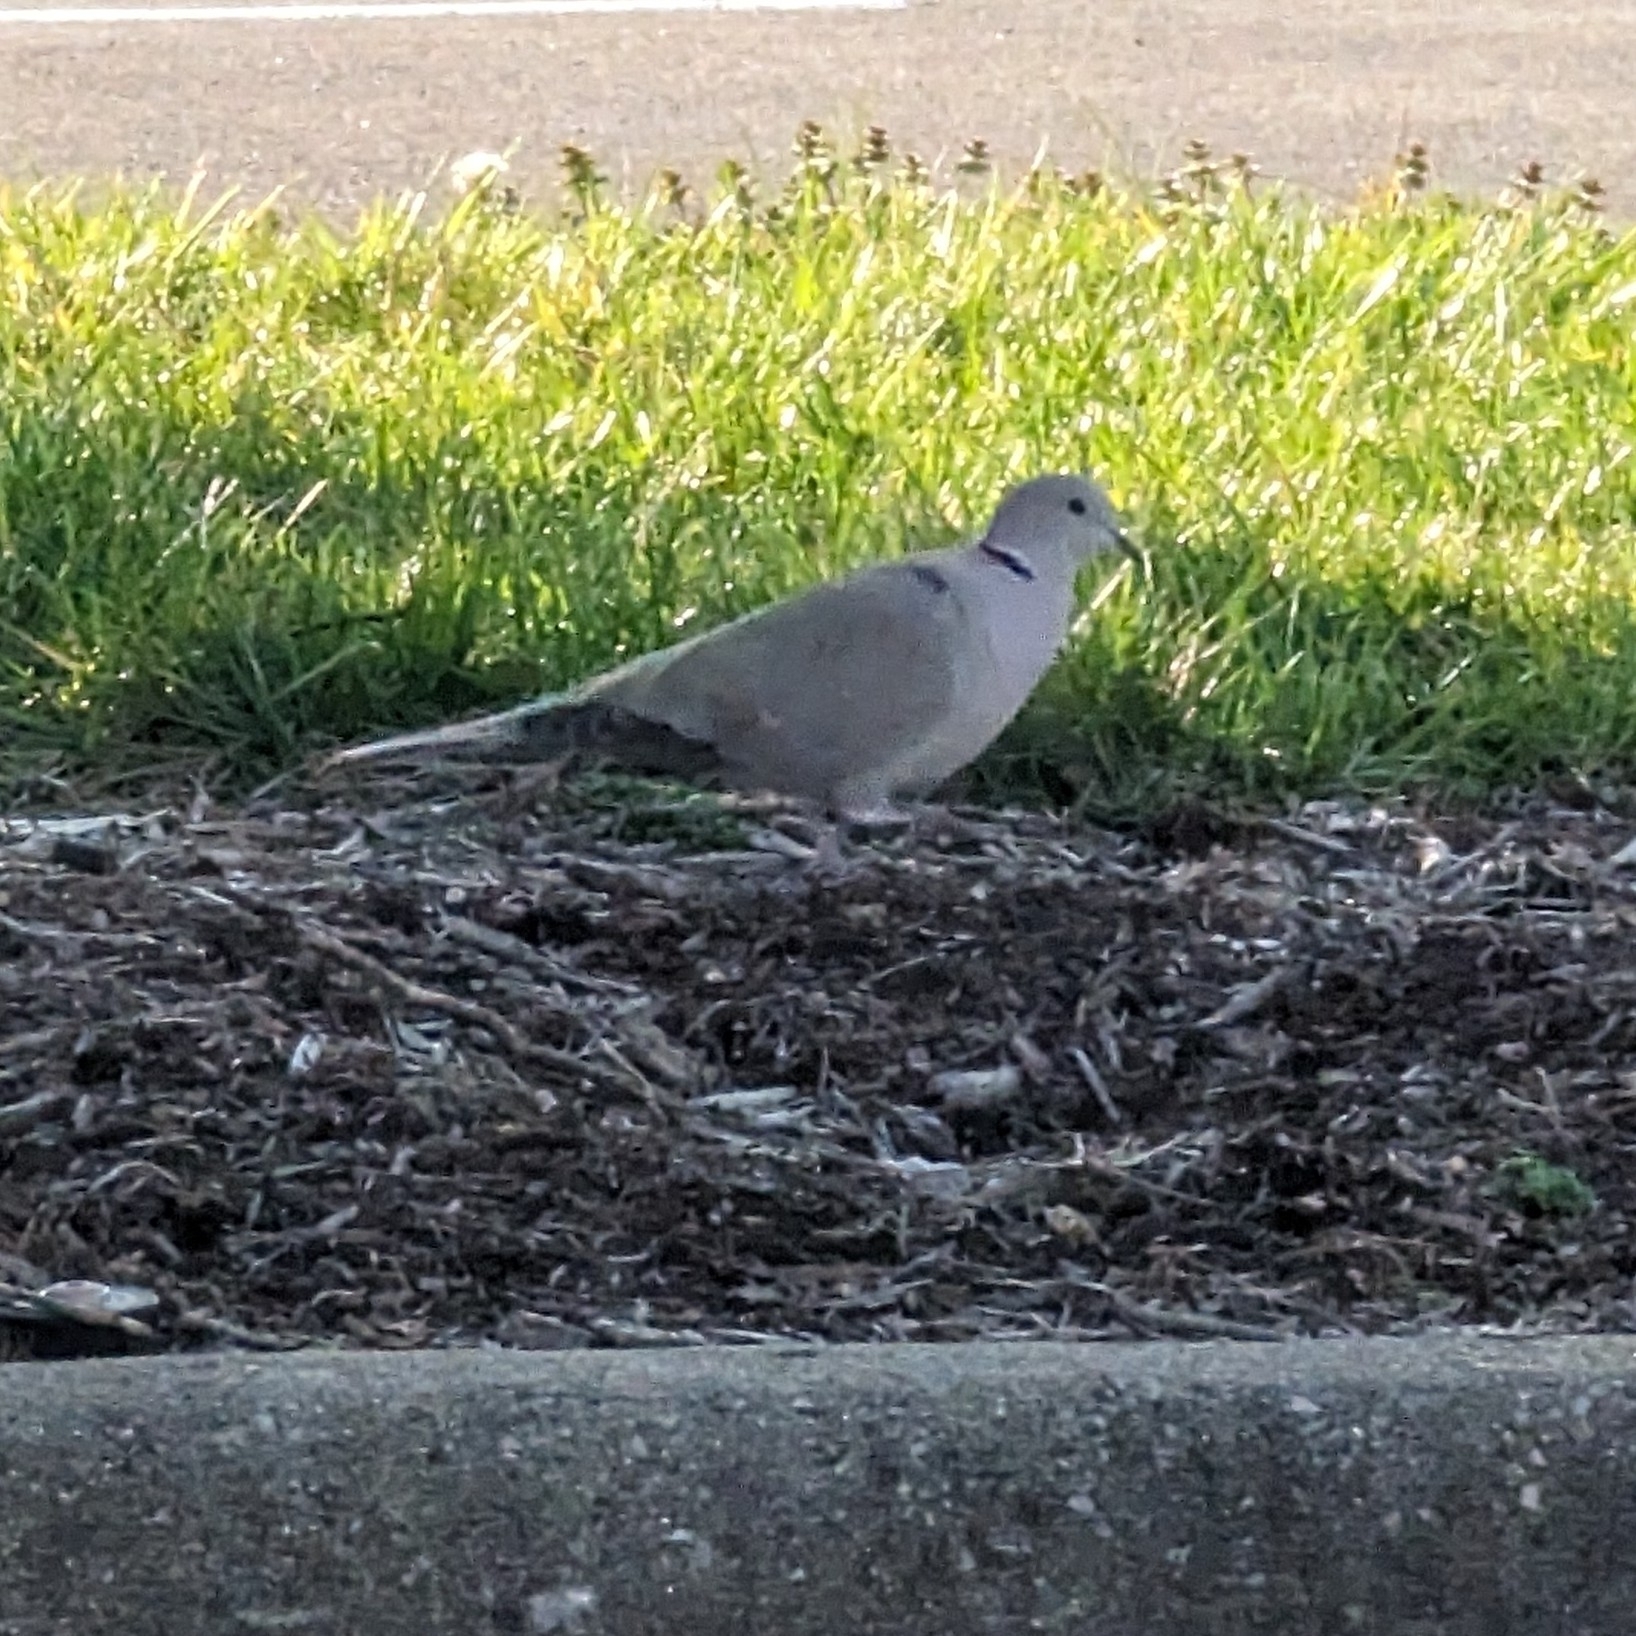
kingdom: Animalia
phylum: Chordata
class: Aves
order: Columbiformes
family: Columbidae
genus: Streptopelia
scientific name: Streptopelia decaocto
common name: Eurasian collared dove
